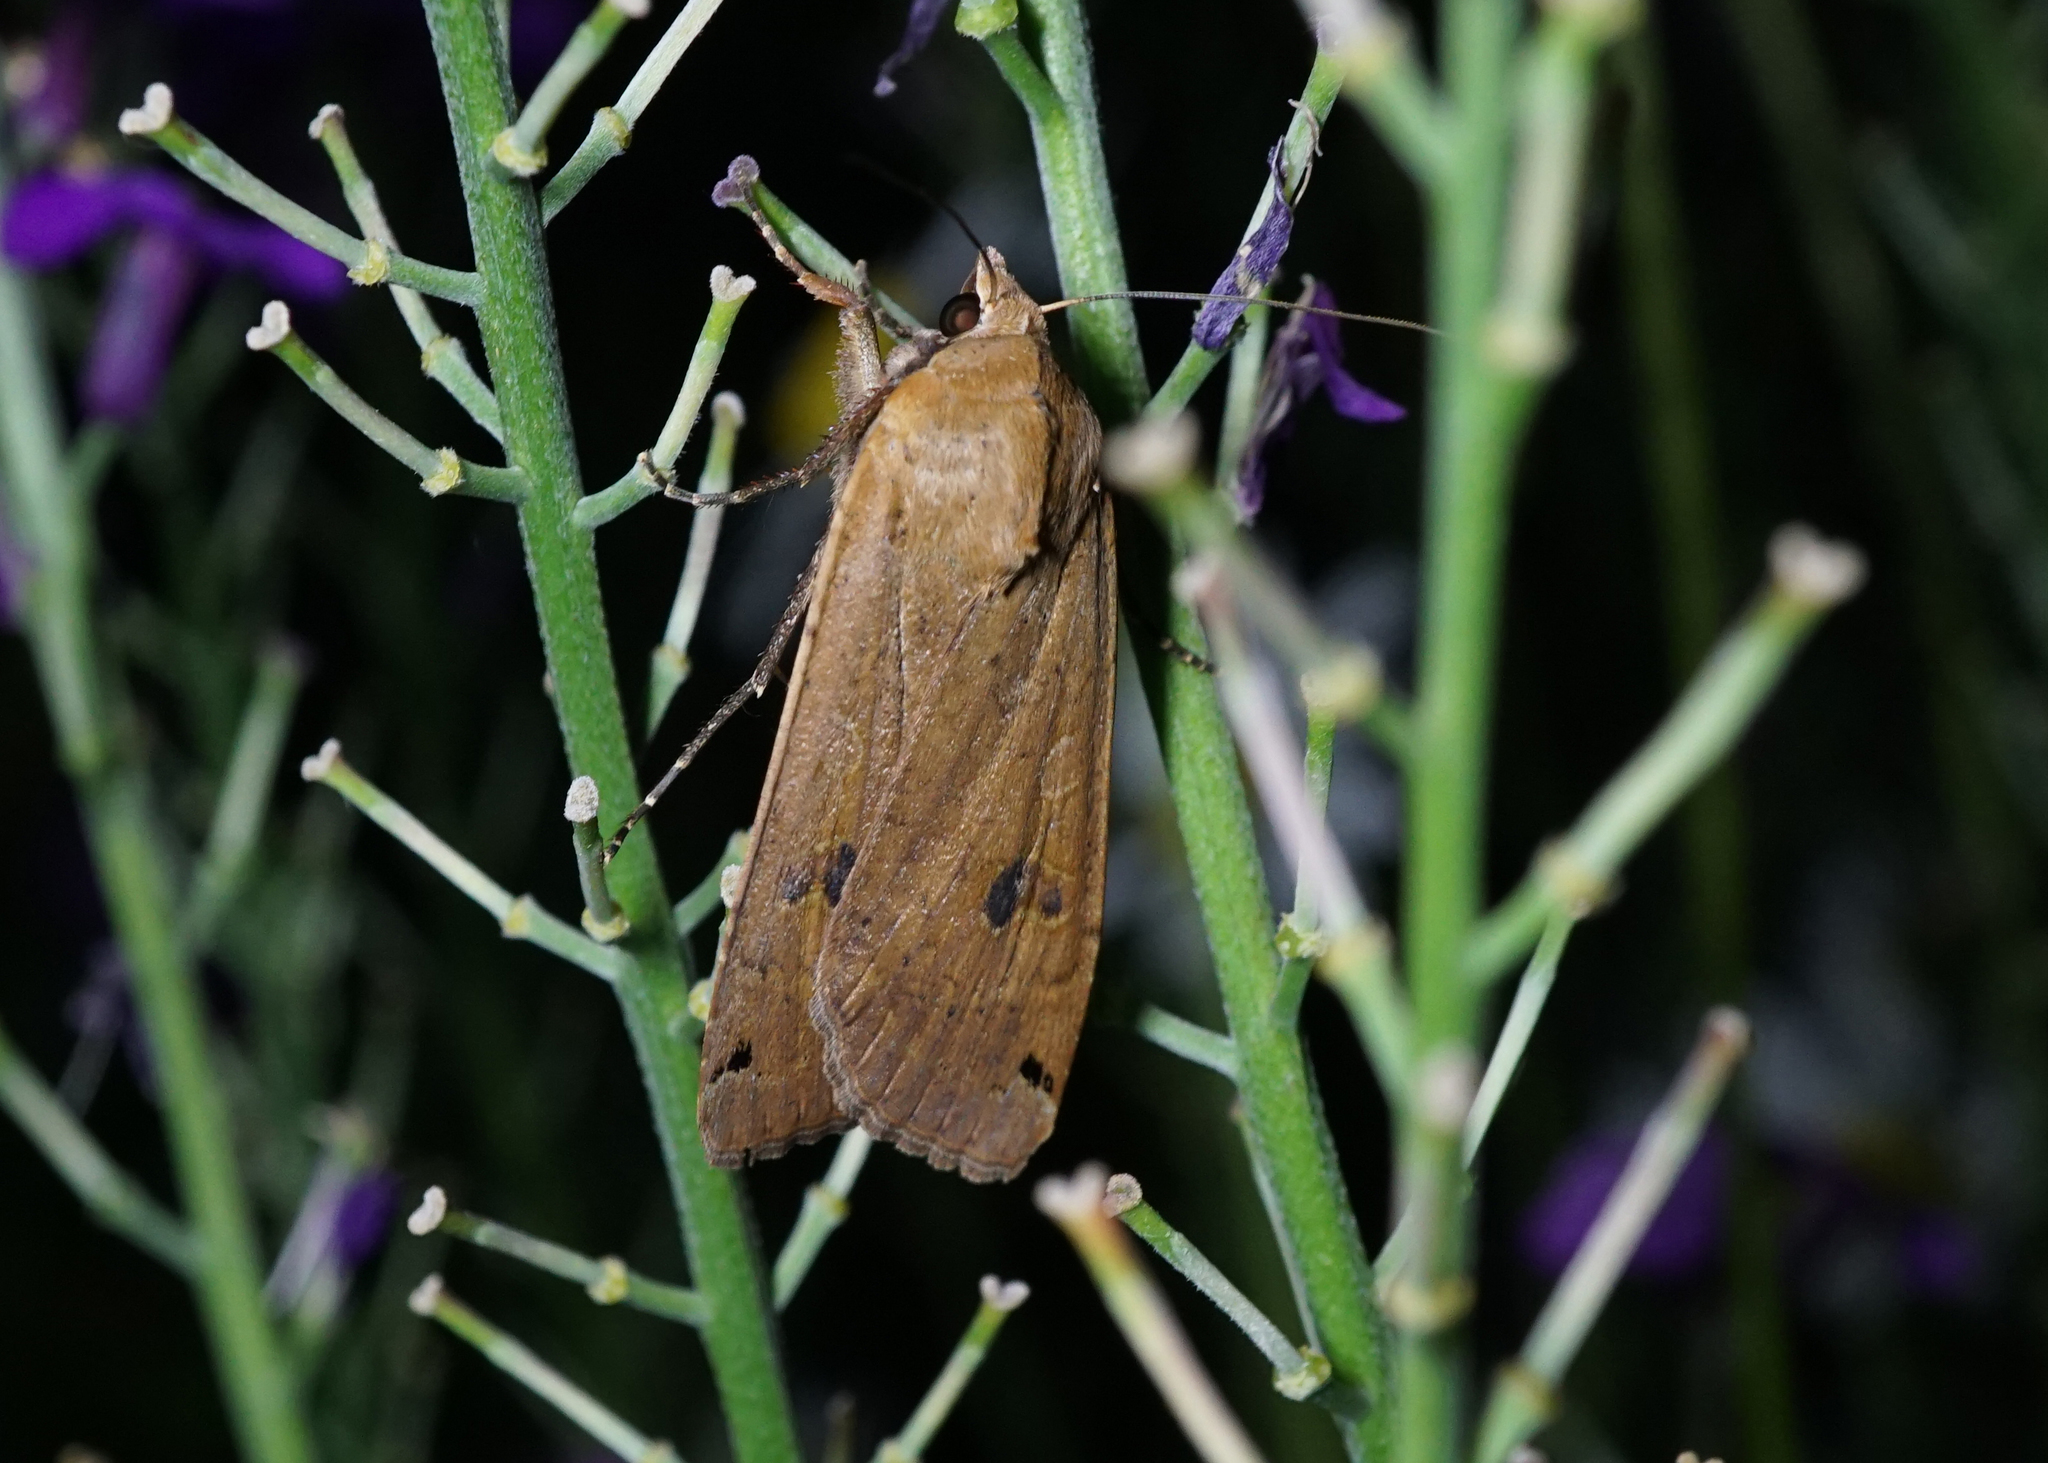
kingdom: Animalia
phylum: Arthropoda
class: Insecta
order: Lepidoptera
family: Noctuidae
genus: Noctua
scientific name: Noctua pronuba
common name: Large yellow underwing
